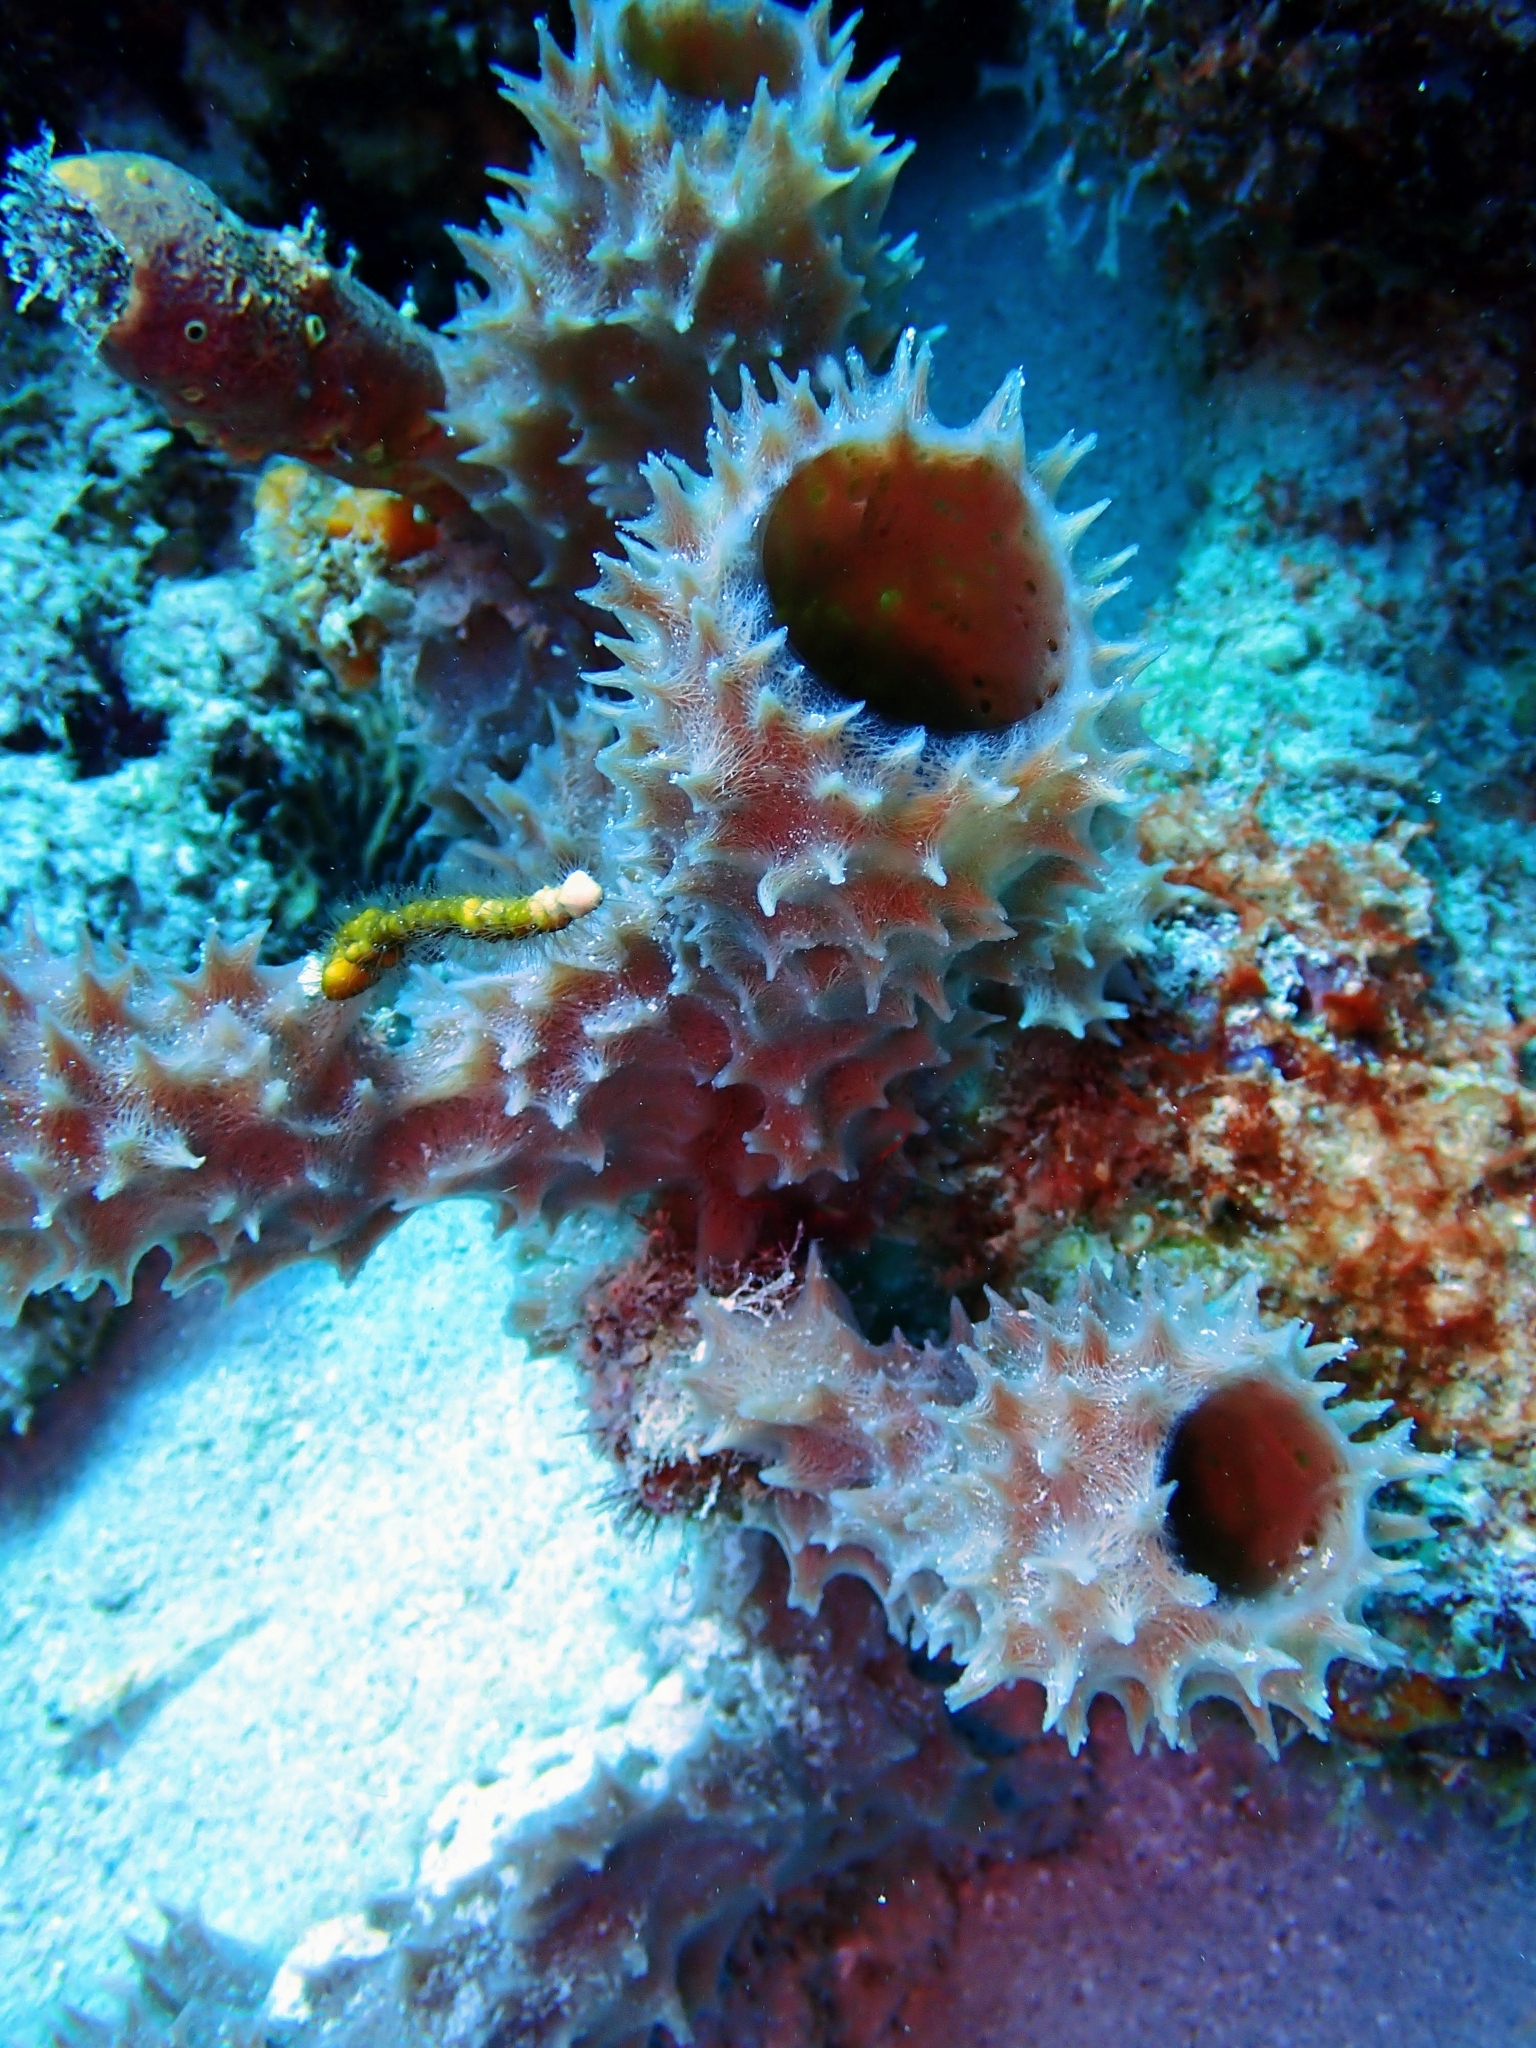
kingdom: Animalia
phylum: Porifera
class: Demospongiae
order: Haplosclerida
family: Callyspongiidae
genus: Callyspongia
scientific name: Callyspongia aculeata
